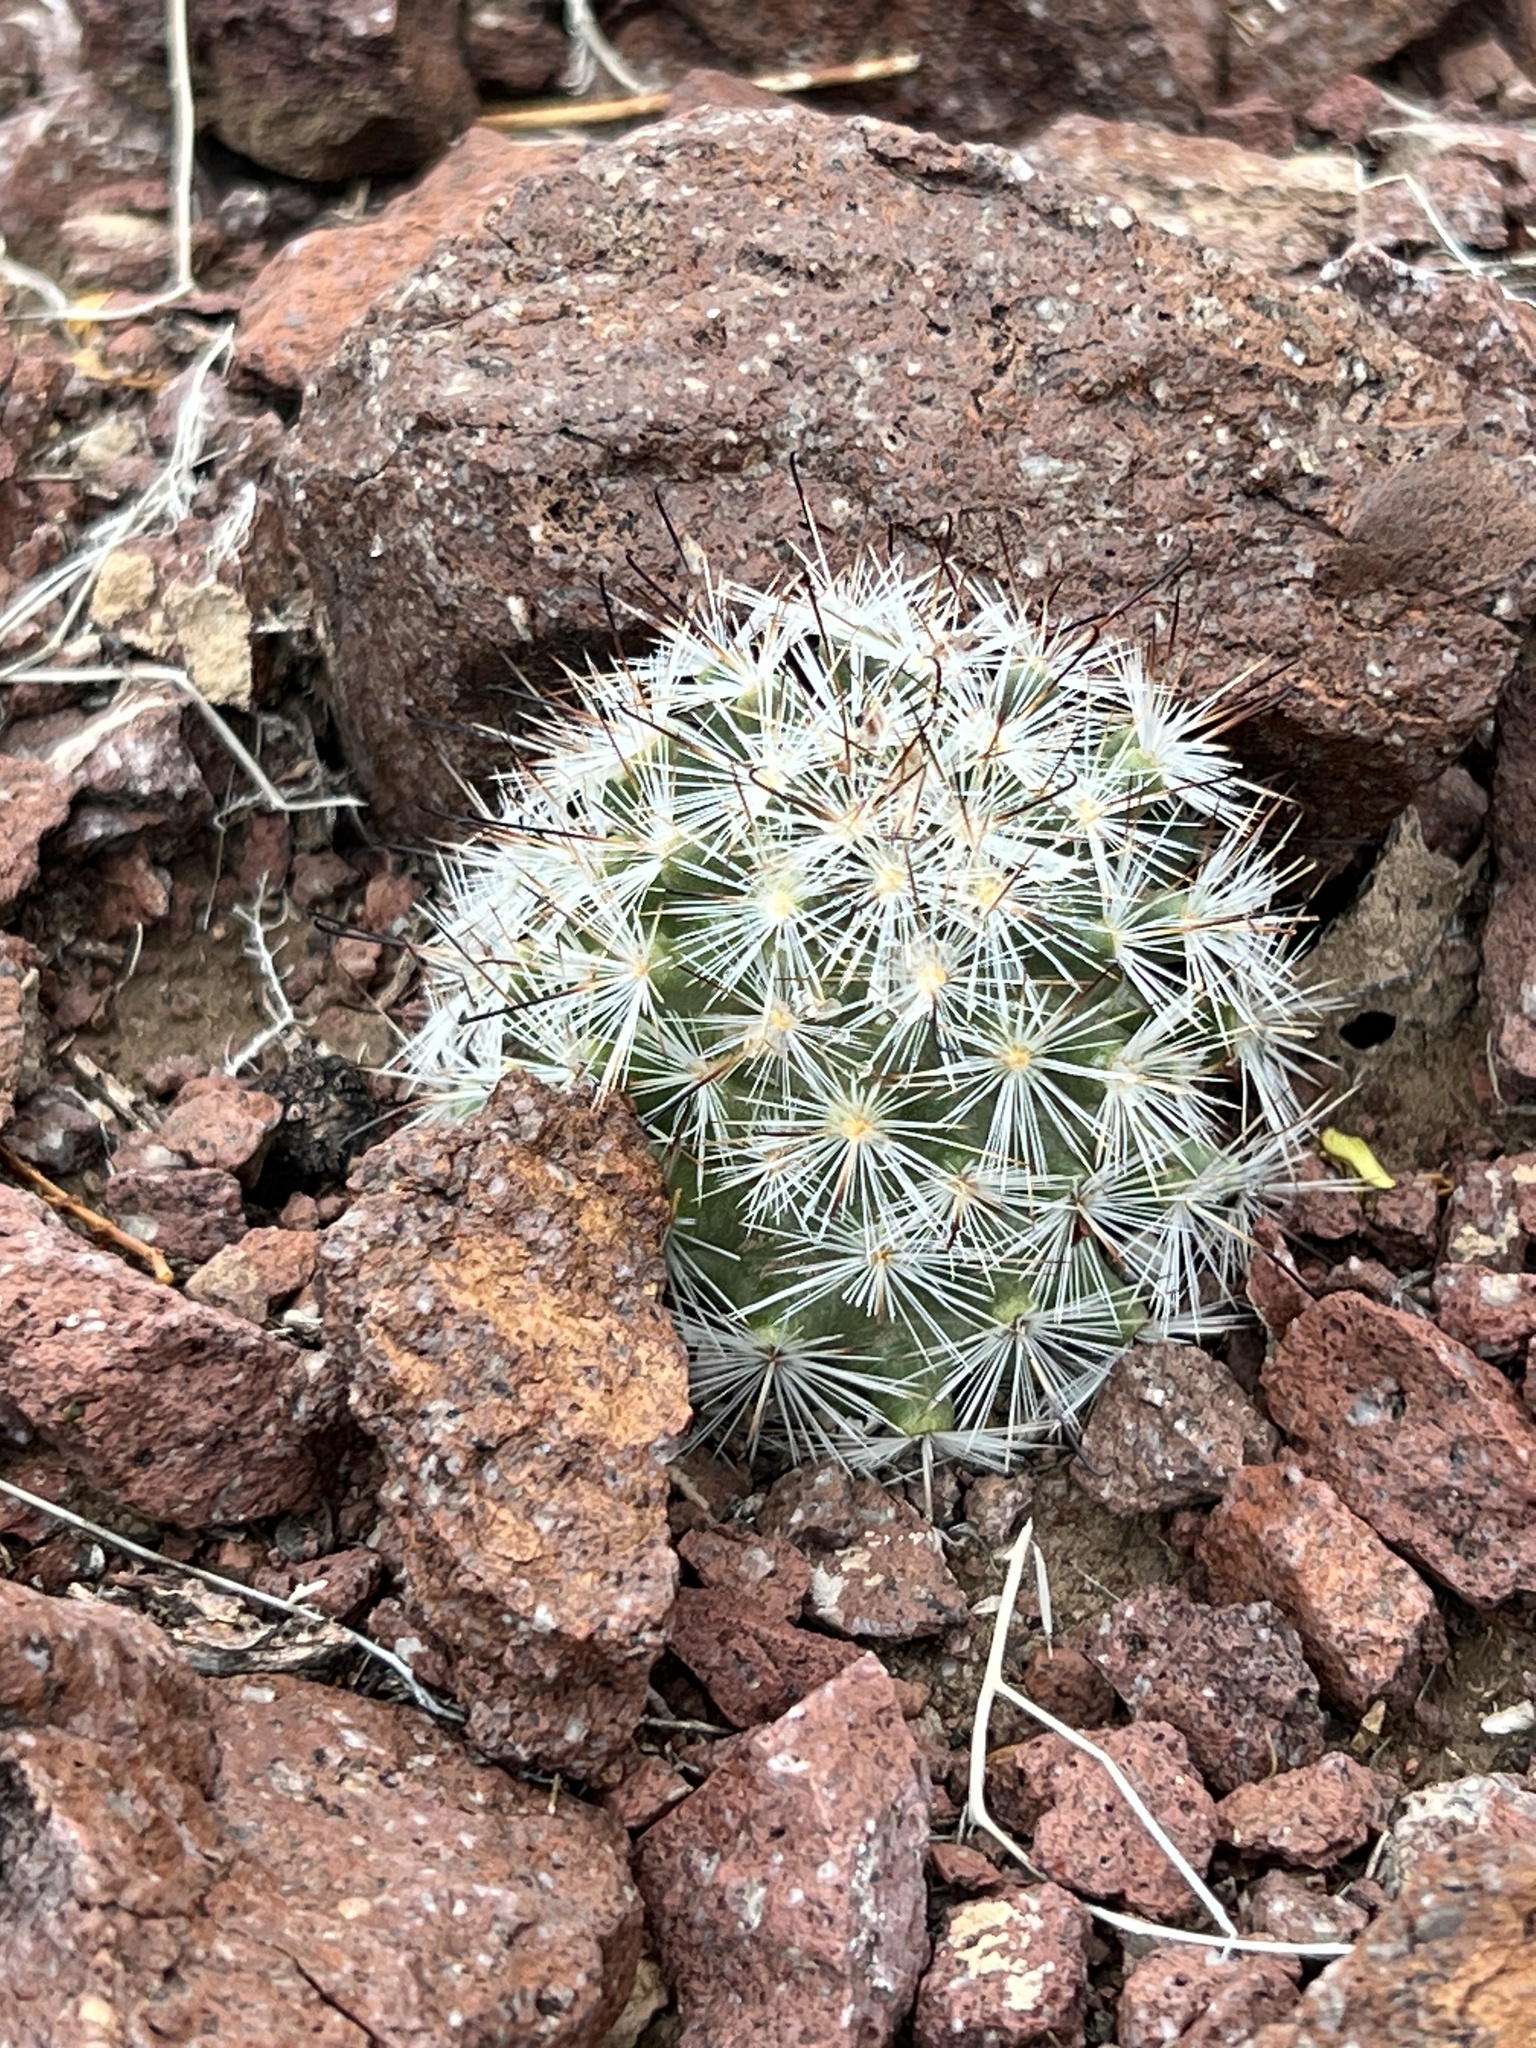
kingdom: Plantae
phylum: Tracheophyta
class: Magnoliopsida
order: Caryophyllales
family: Cactaceae
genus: Cochemiea
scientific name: Cochemiea tetrancistra
